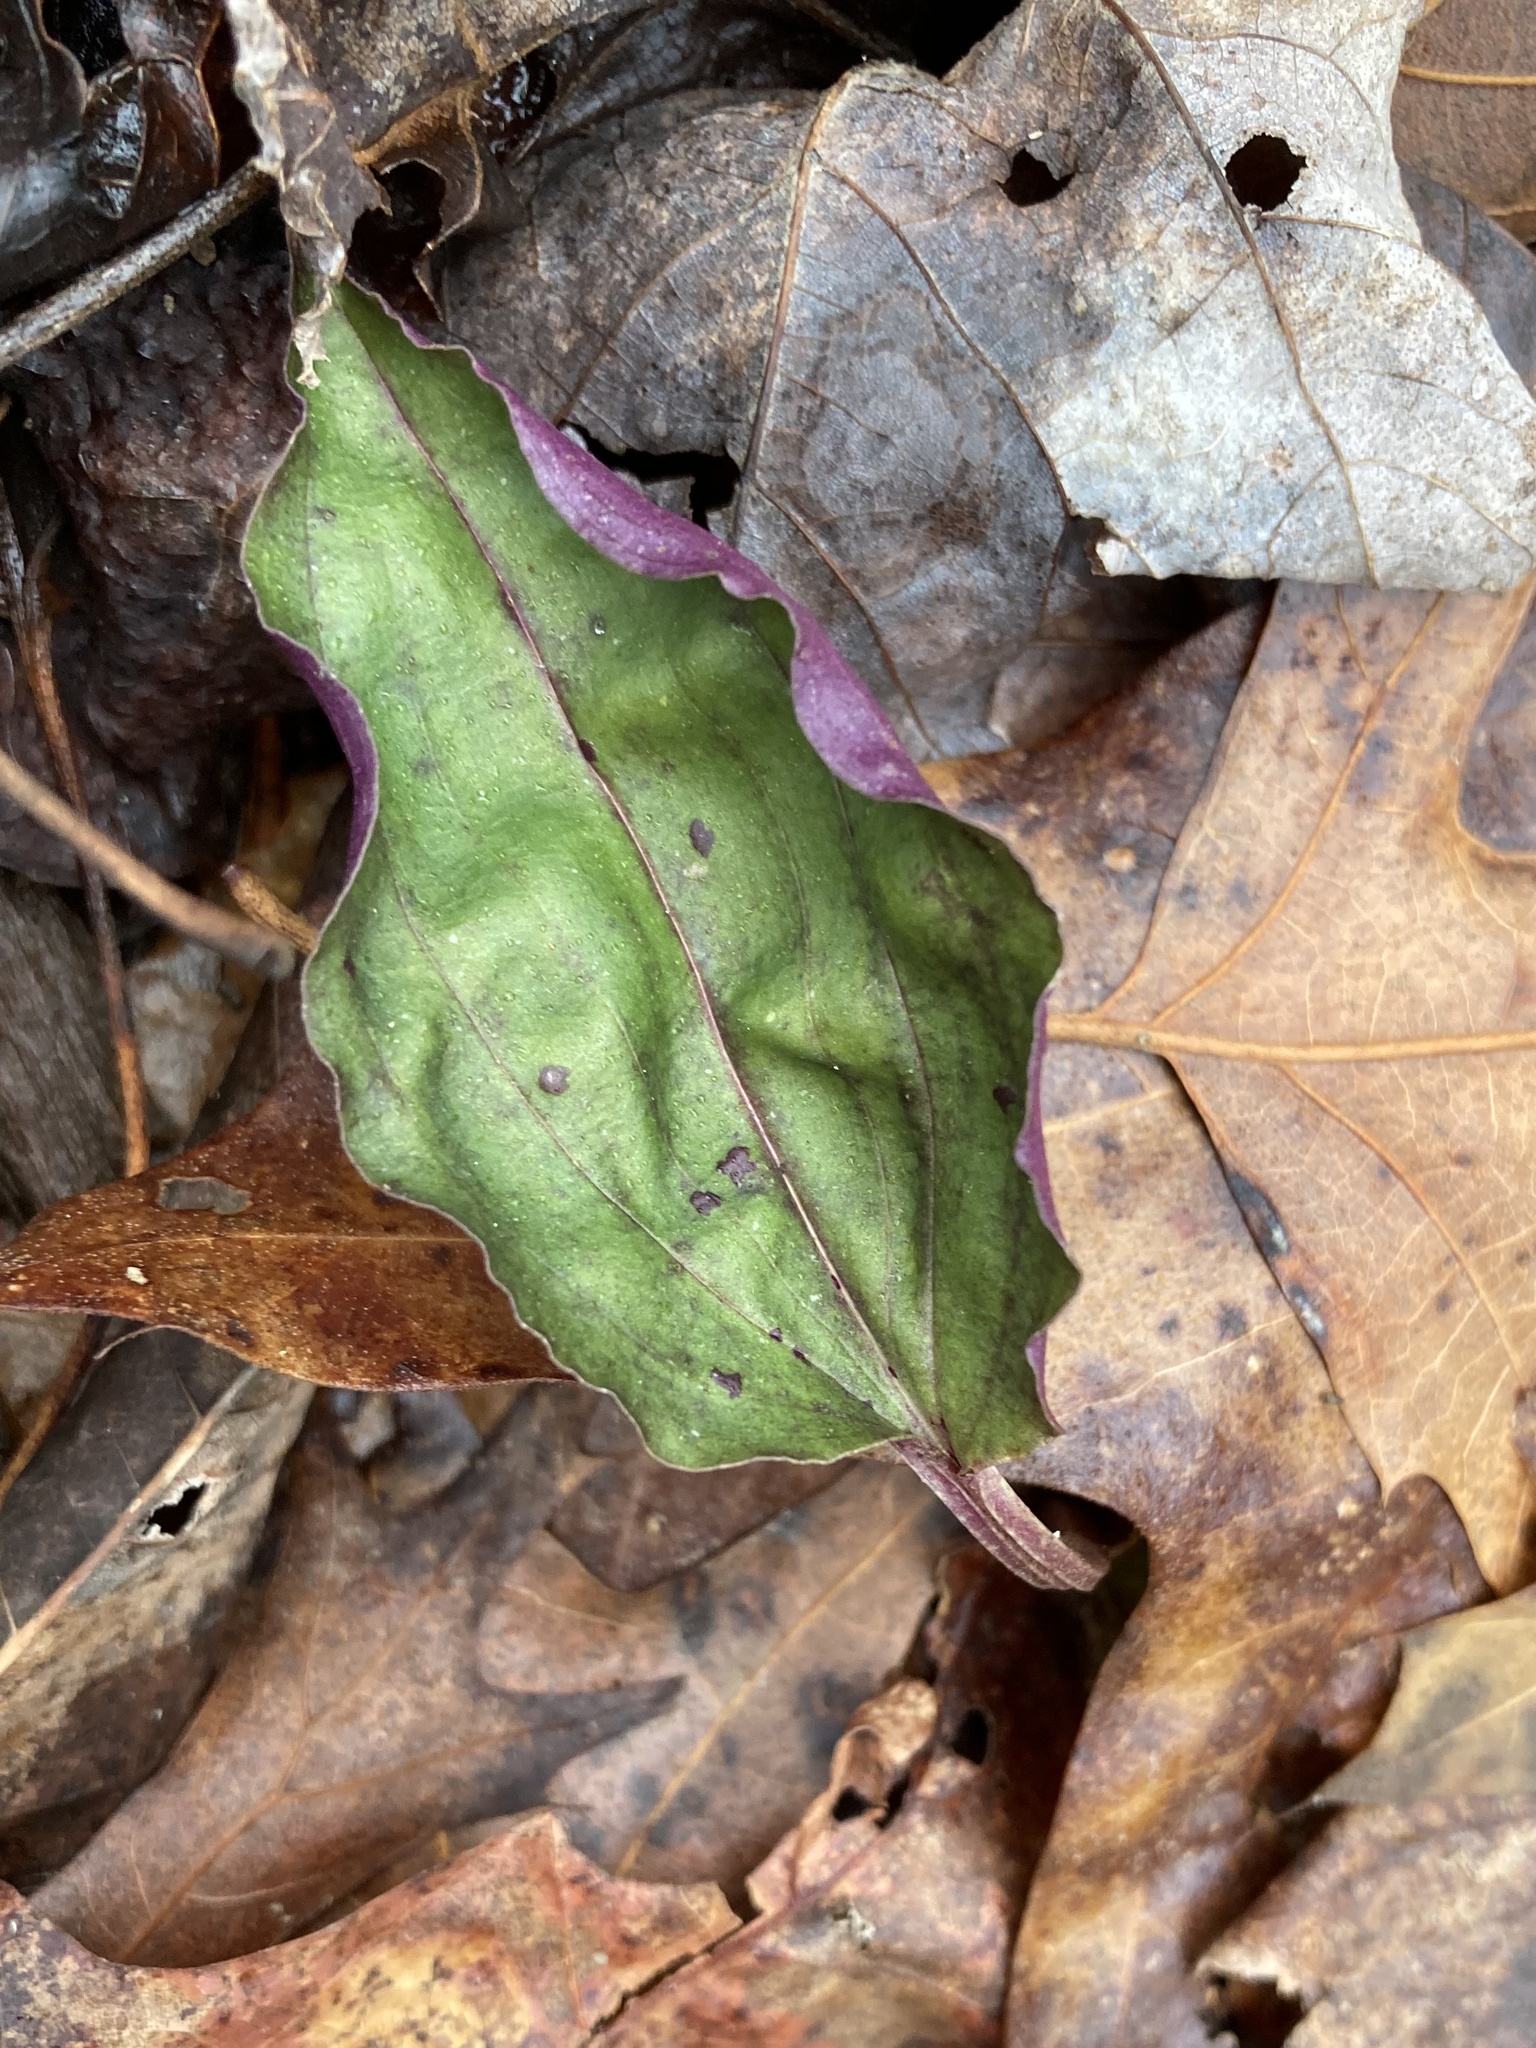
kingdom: Plantae
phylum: Tracheophyta
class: Liliopsida
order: Asparagales
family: Orchidaceae
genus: Tipularia
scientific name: Tipularia discolor
